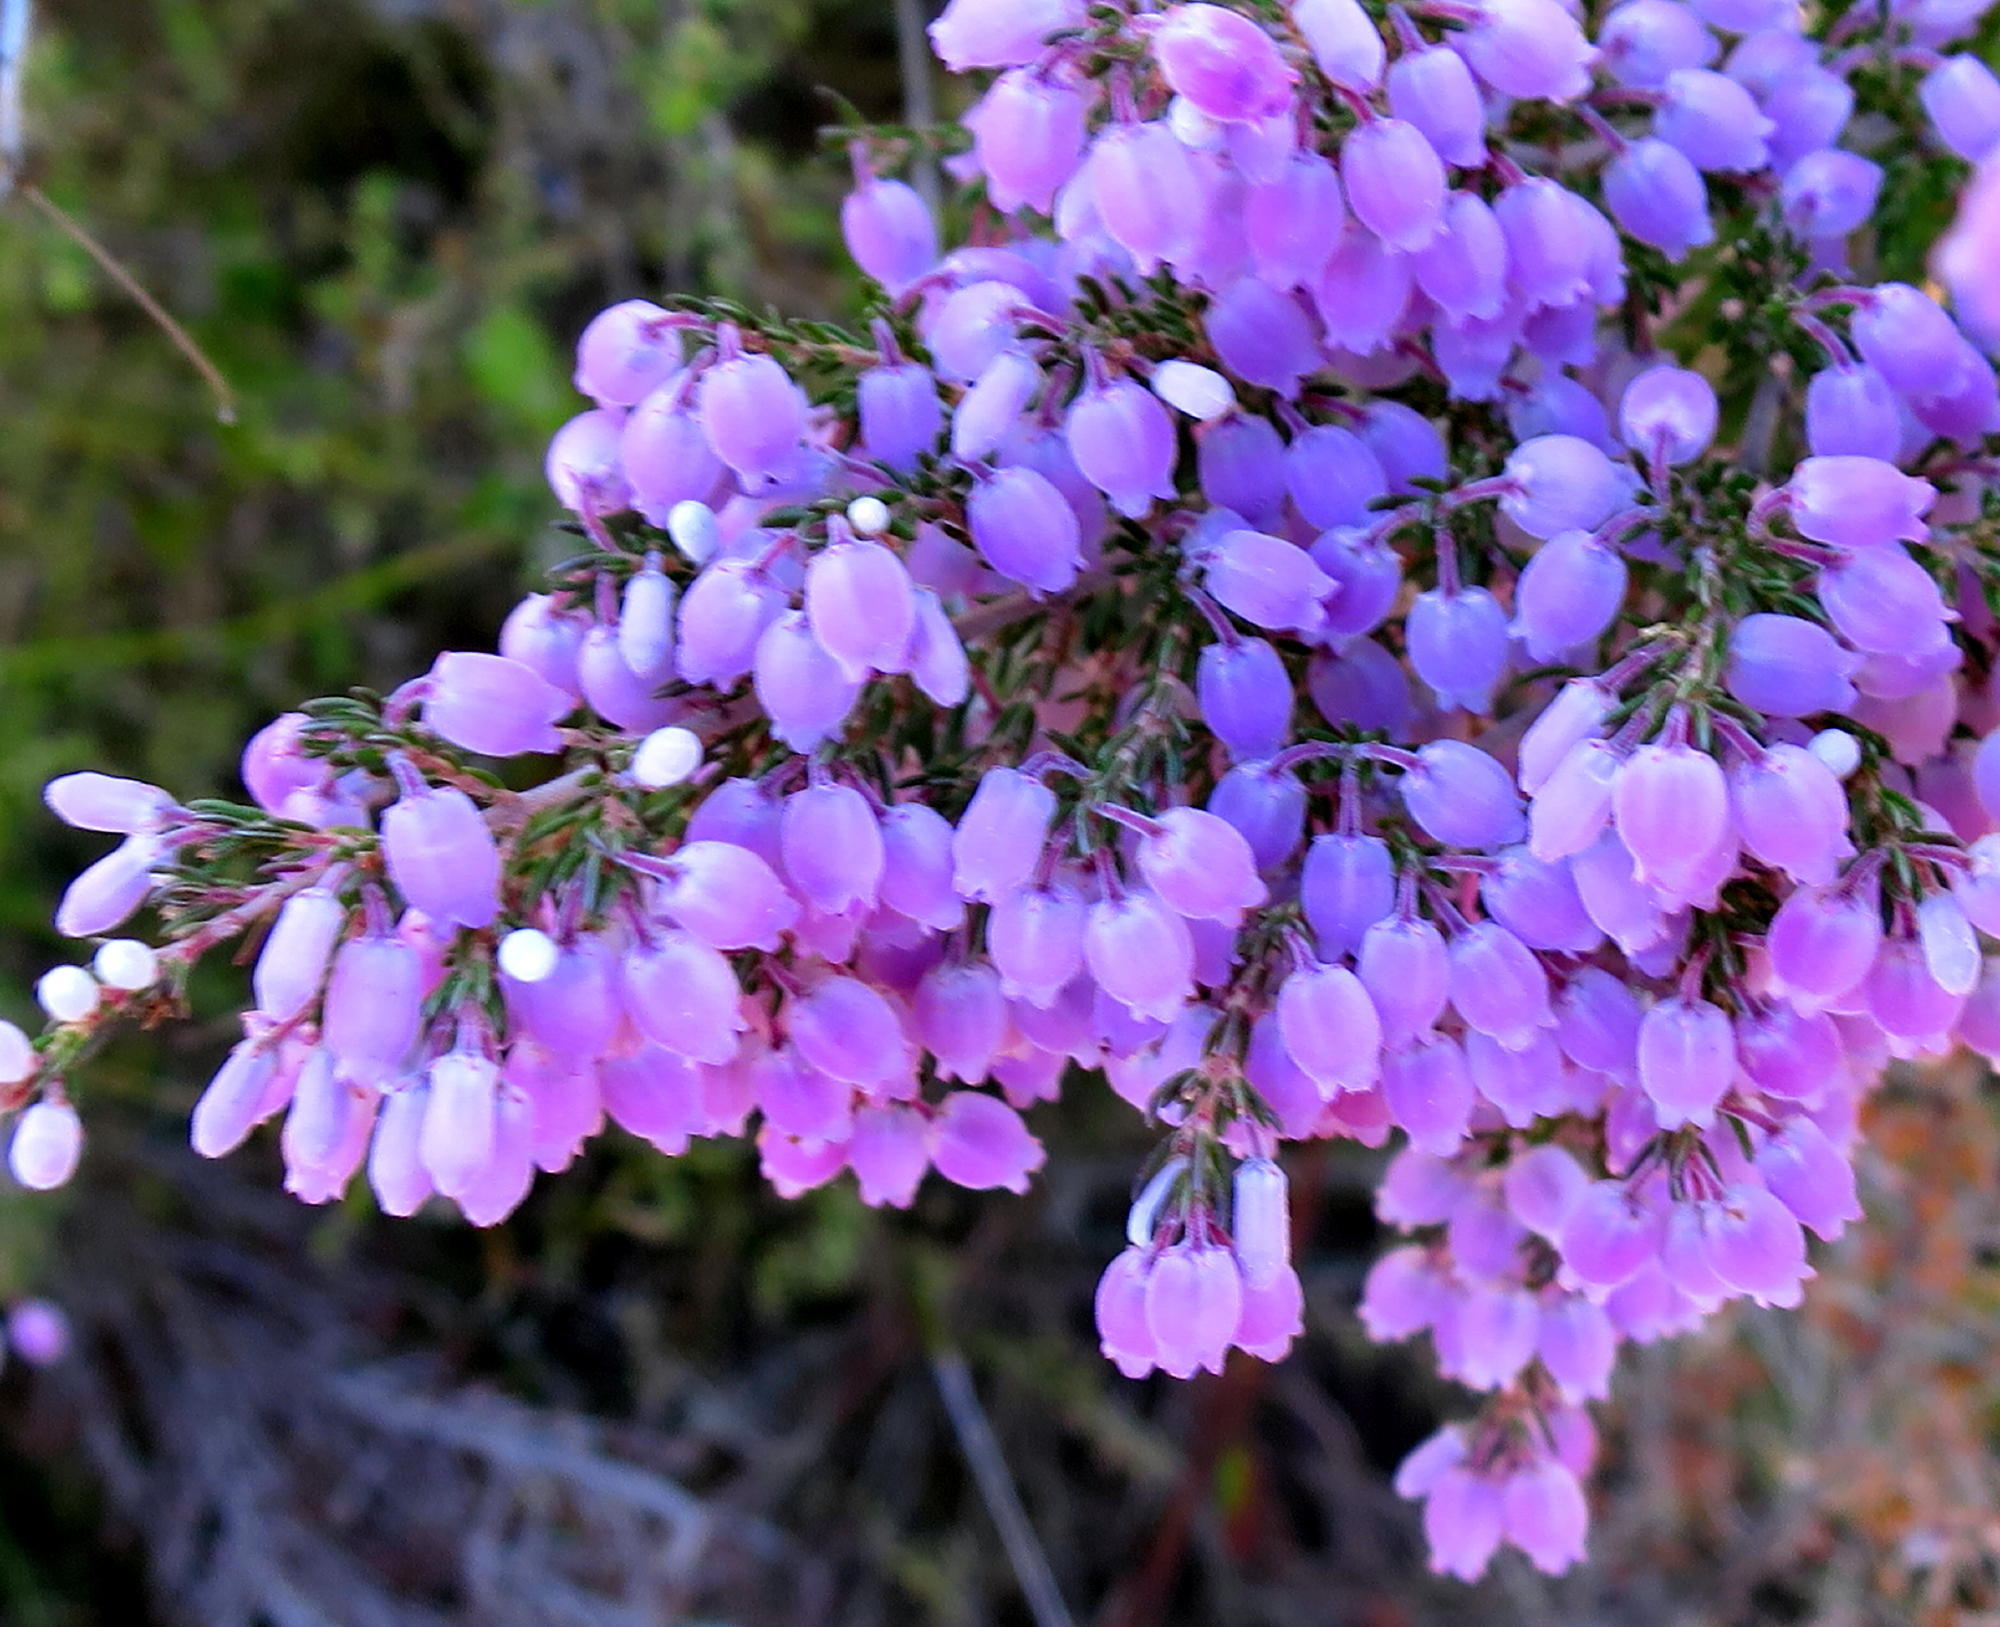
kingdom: Plantae
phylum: Tracheophyta
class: Magnoliopsida
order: Ericales
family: Ericaceae
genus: Erica
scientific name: Erica tomentosa
